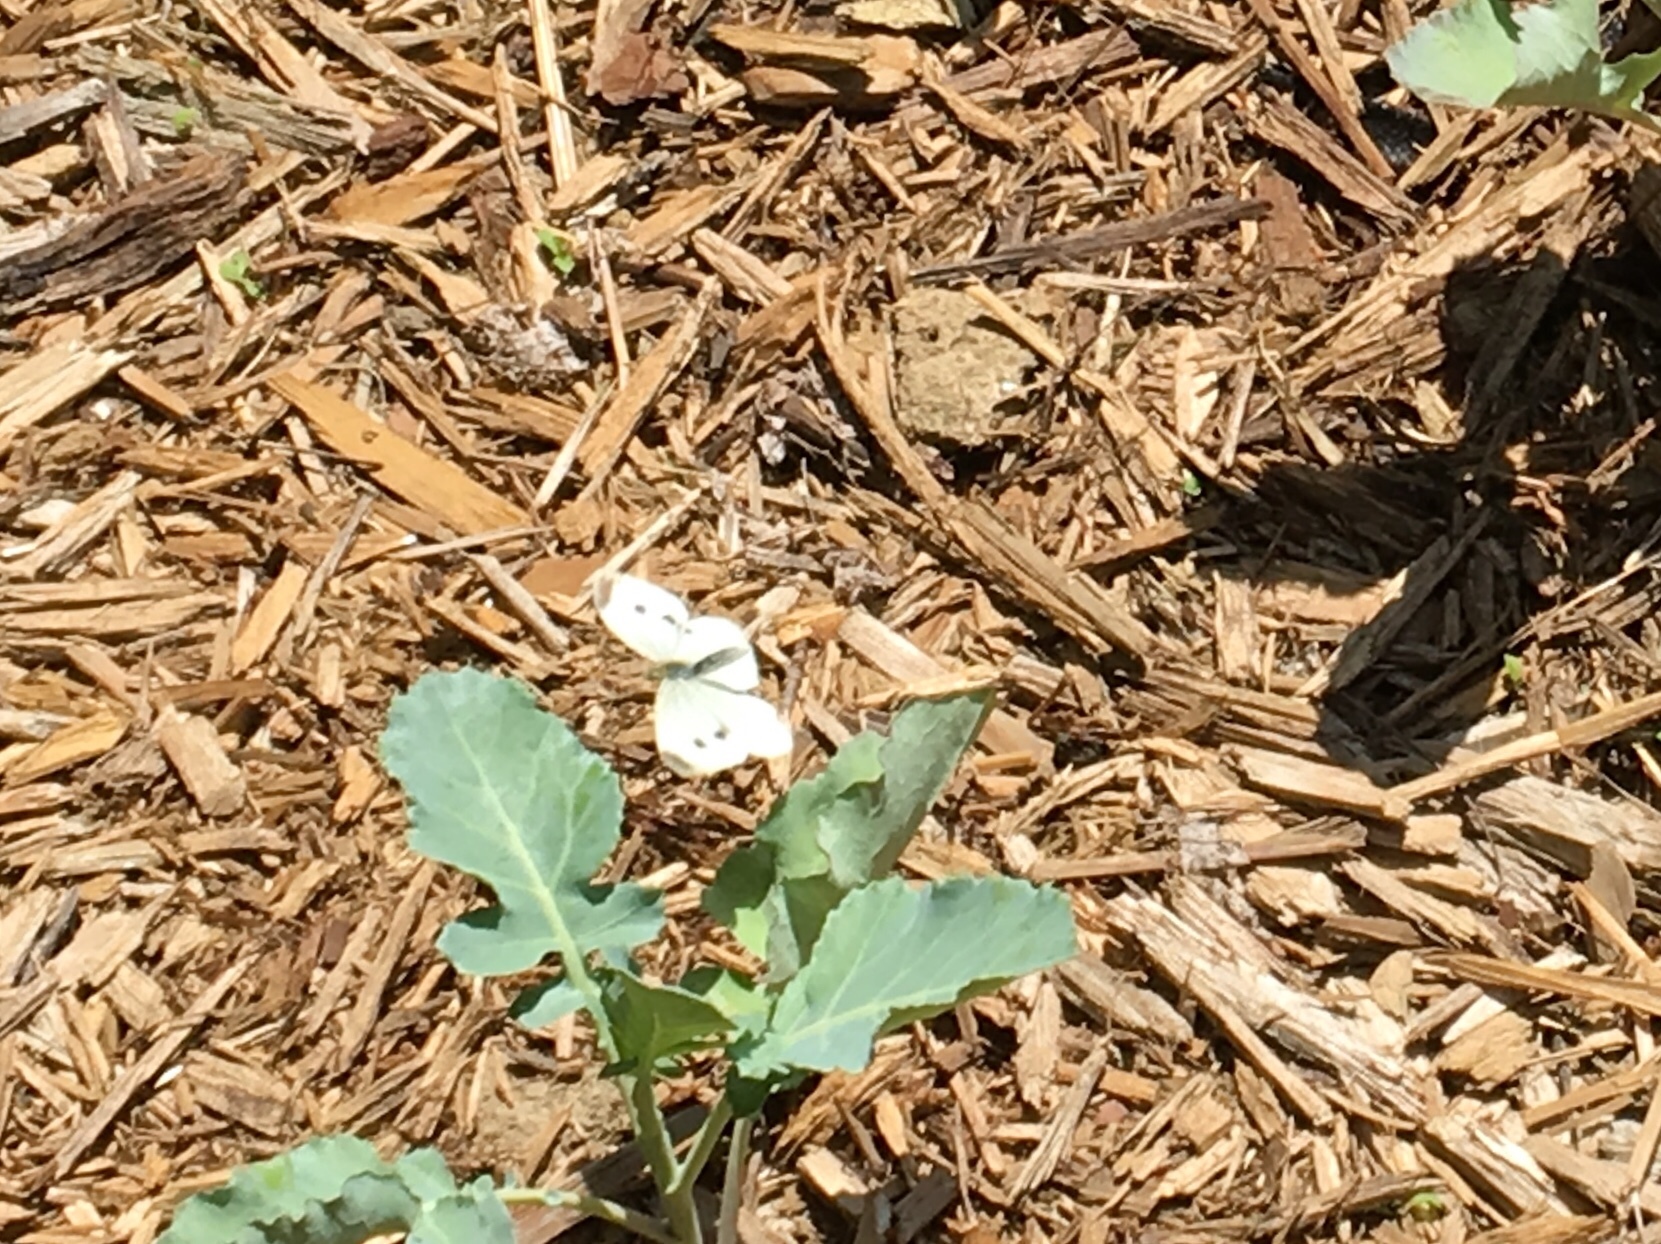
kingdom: Animalia
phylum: Arthropoda
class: Insecta
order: Lepidoptera
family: Pieridae
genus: Pieris
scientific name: Pieris rapae
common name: Small white
